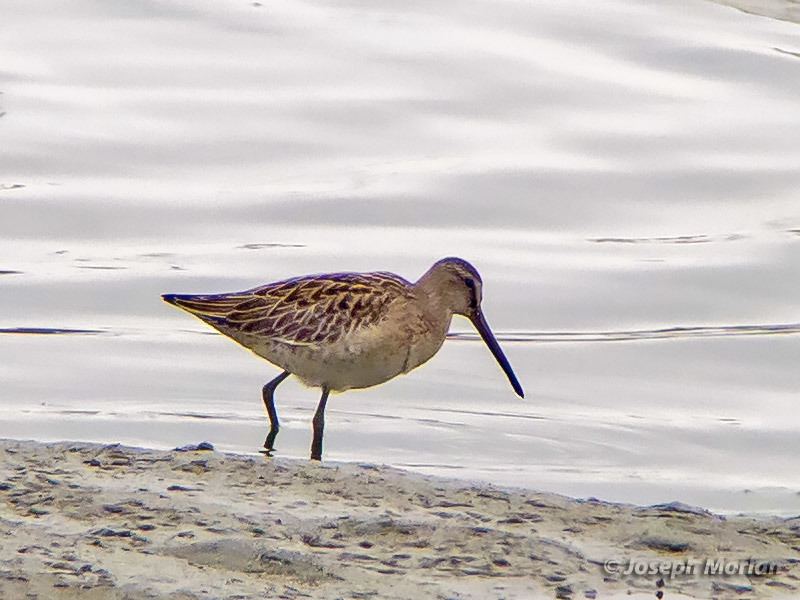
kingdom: Animalia
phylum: Chordata
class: Aves
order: Charadriiformes
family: Scolopacidae
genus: Limnodromus
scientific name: Limnodromus griseus
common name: Short-billed dowitcher
